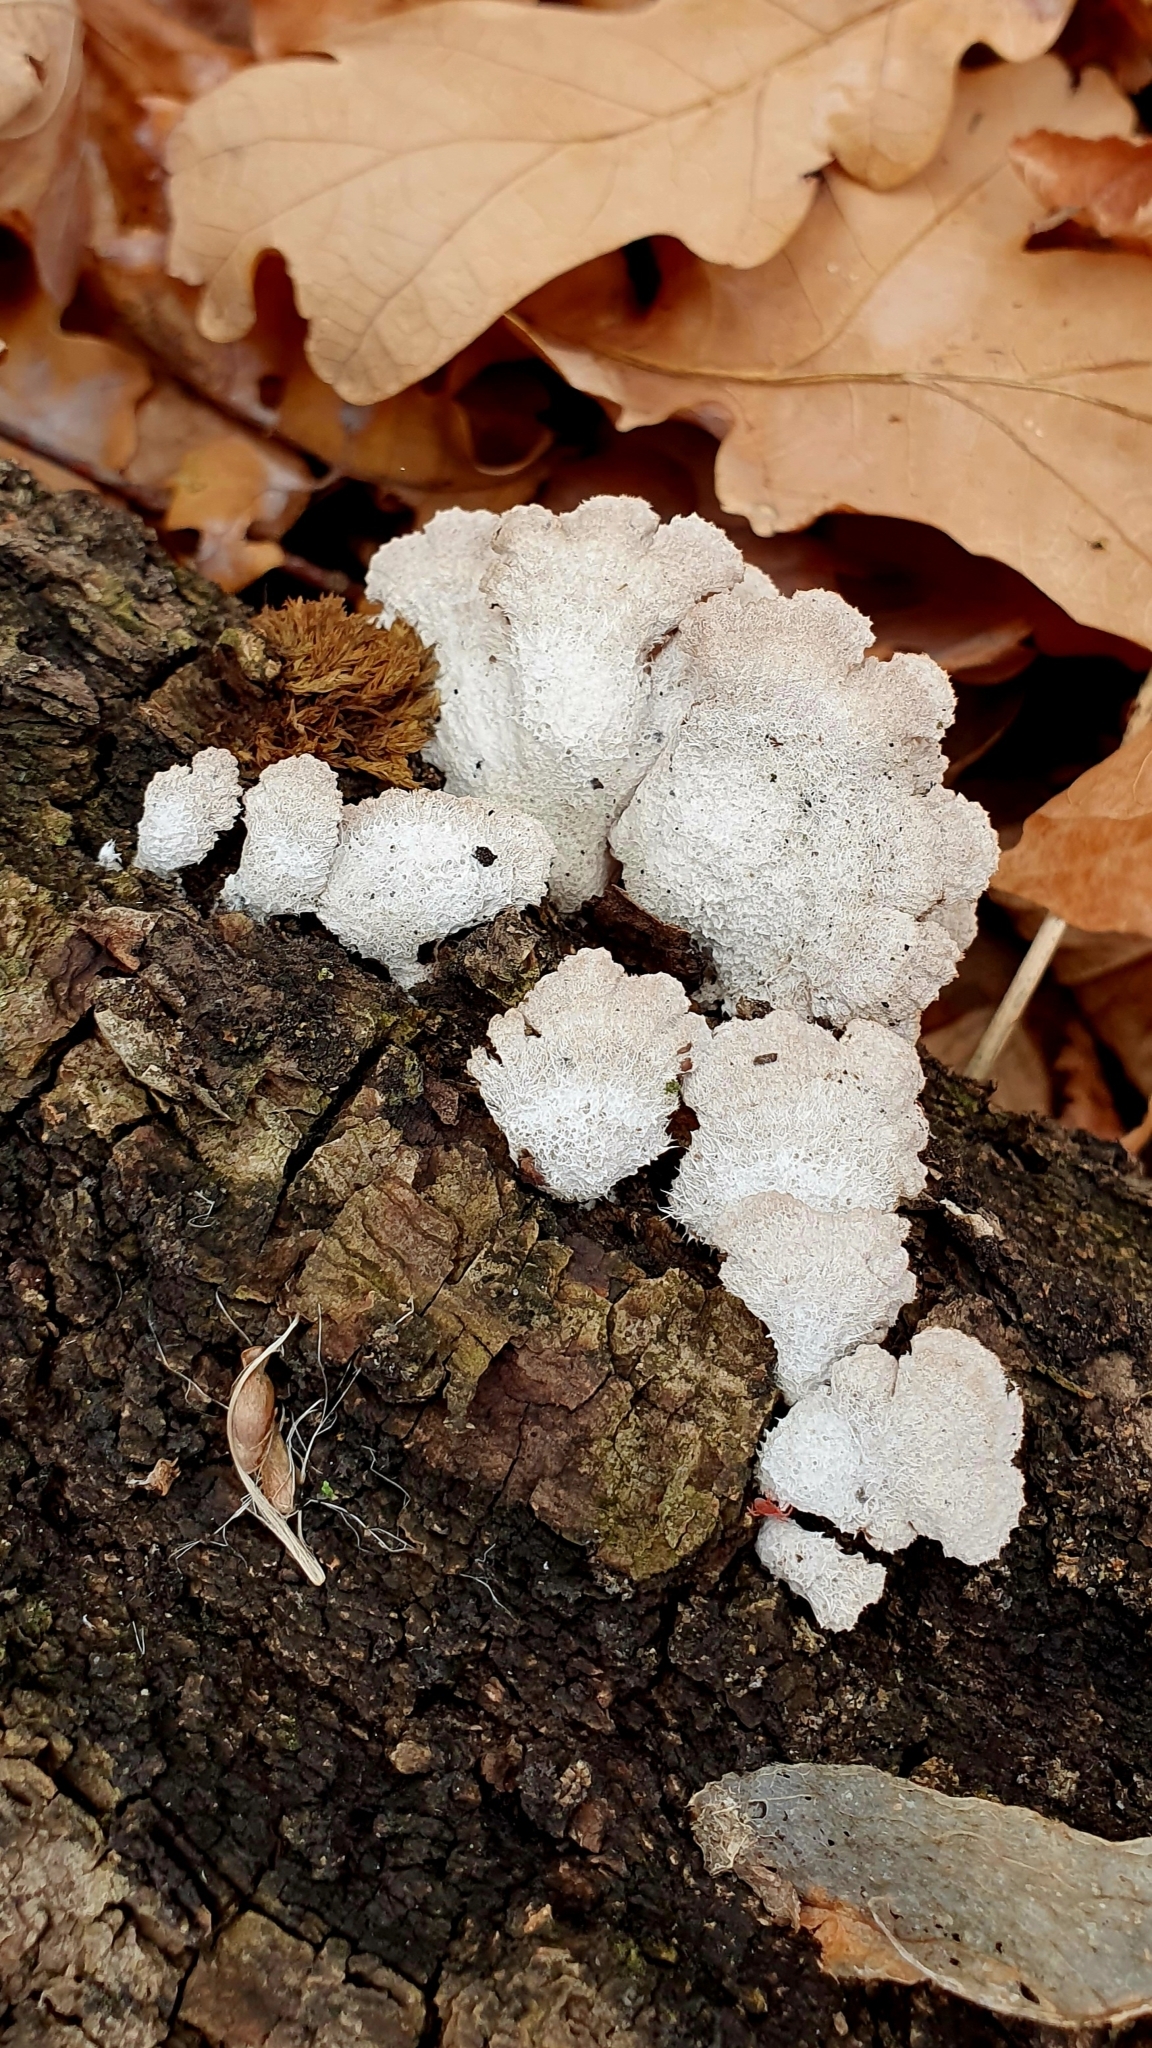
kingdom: Fungi
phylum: Basidiomycota
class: Agaricomycetes
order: Agaricales
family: Schizophyllaceae
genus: Schizophyllum
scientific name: Schizophyllum commune
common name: Common porecrust
